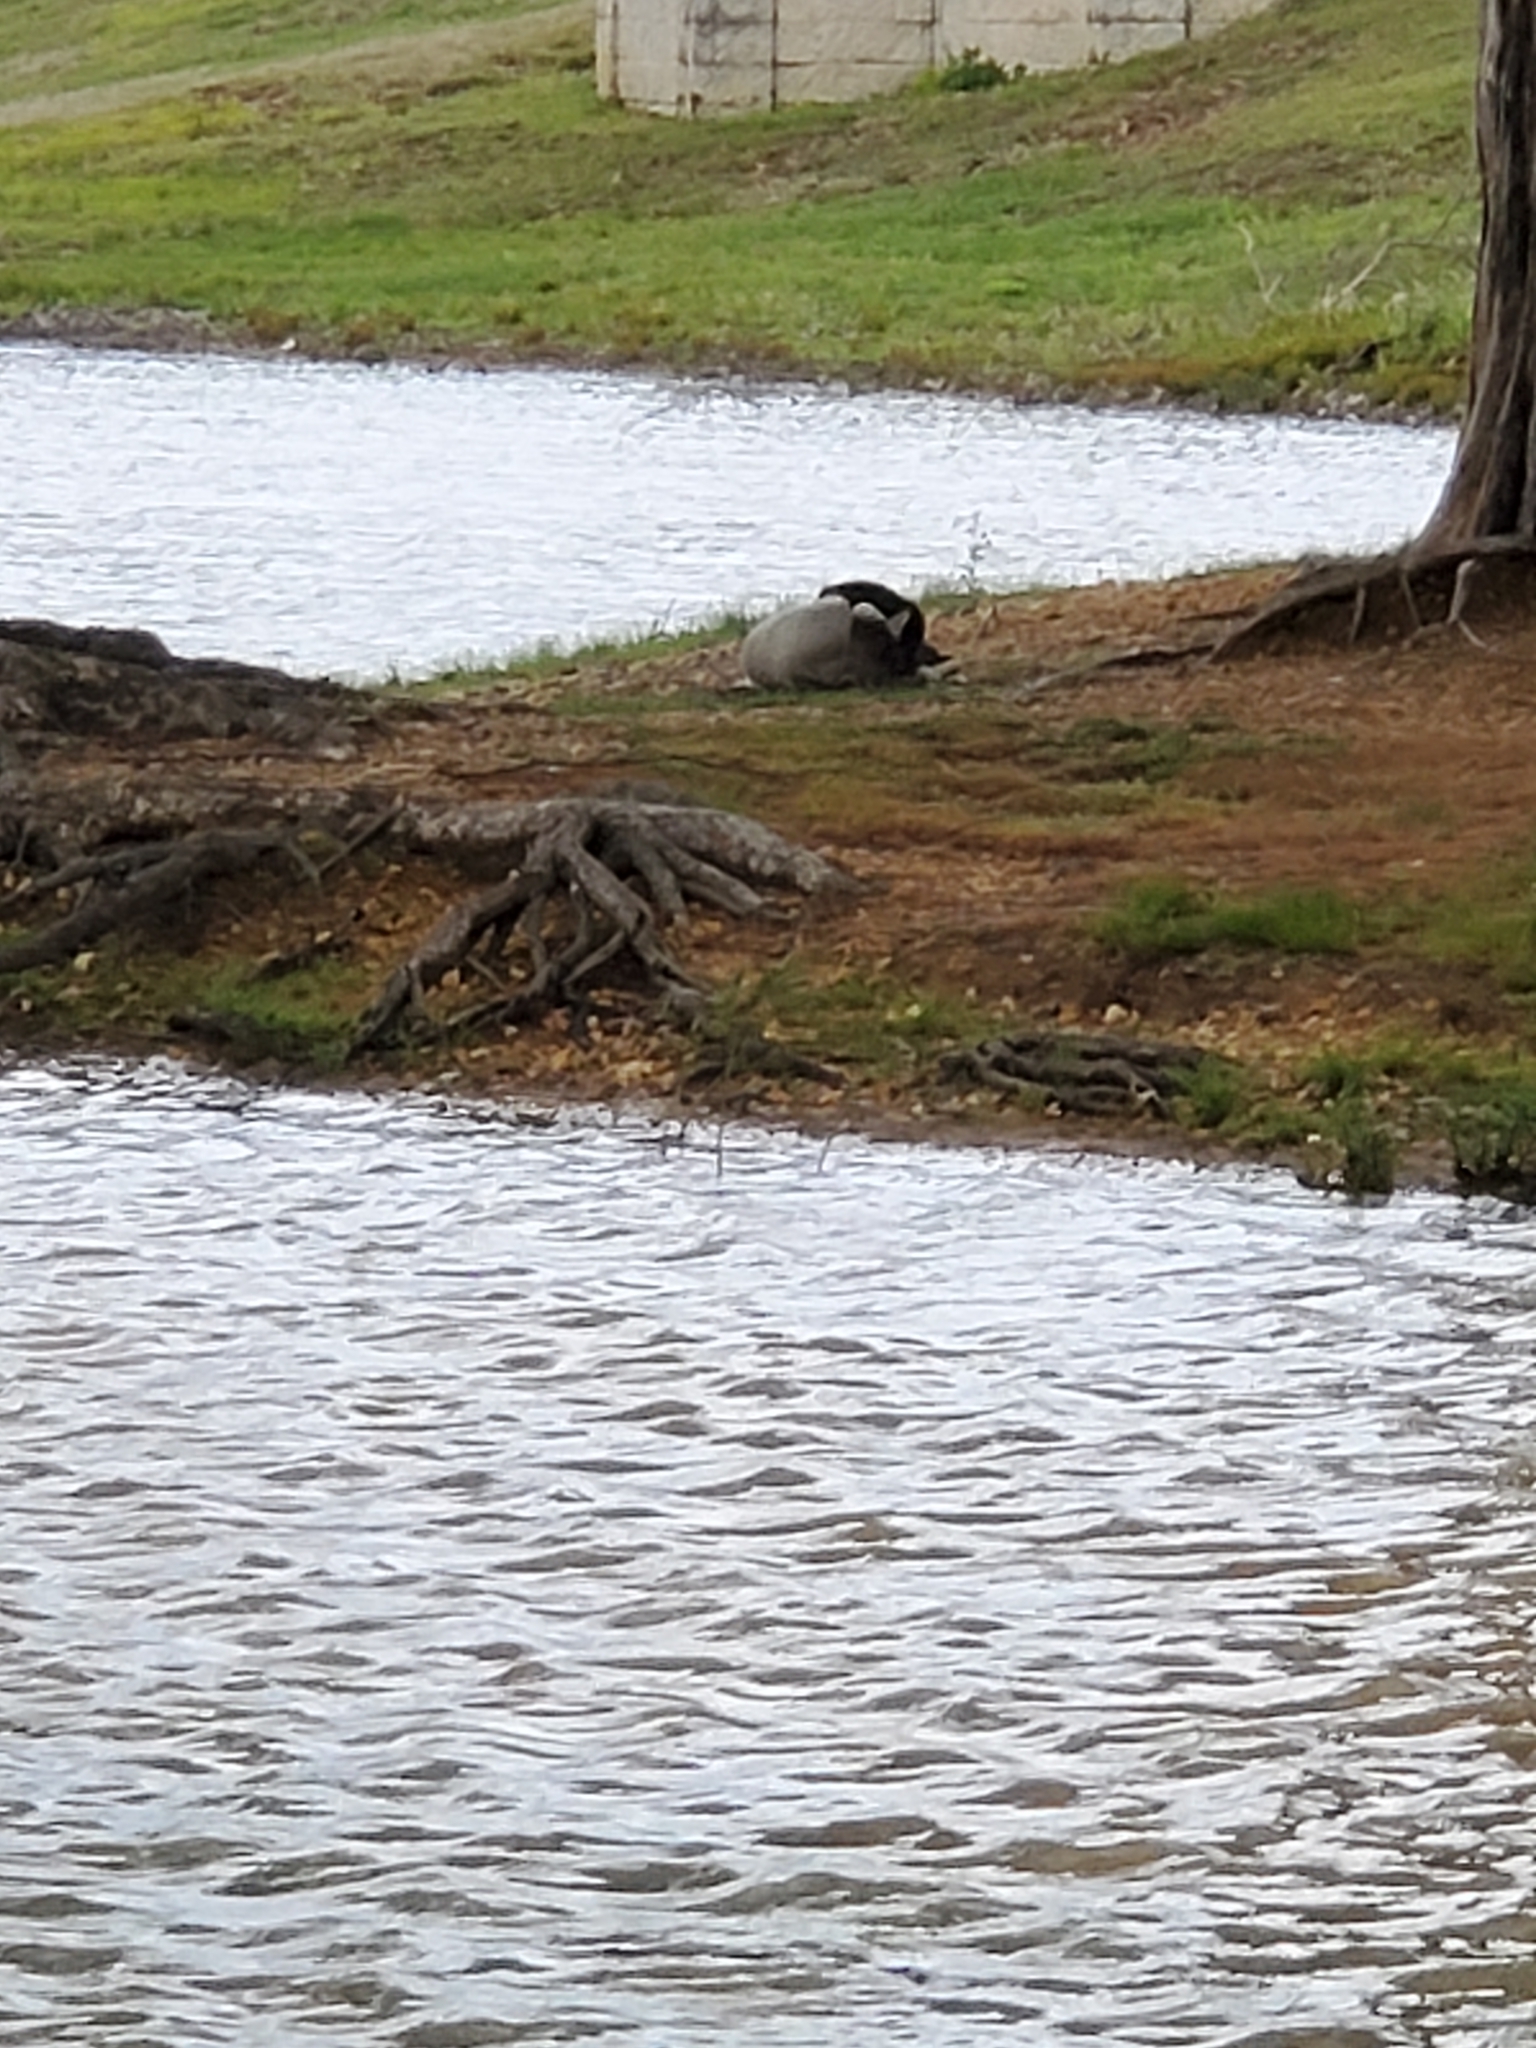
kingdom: Animalia
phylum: Chordata
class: Aves
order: Anseriformes
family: Anatidae
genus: Branta
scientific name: Branta canadensis
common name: Canada goose
